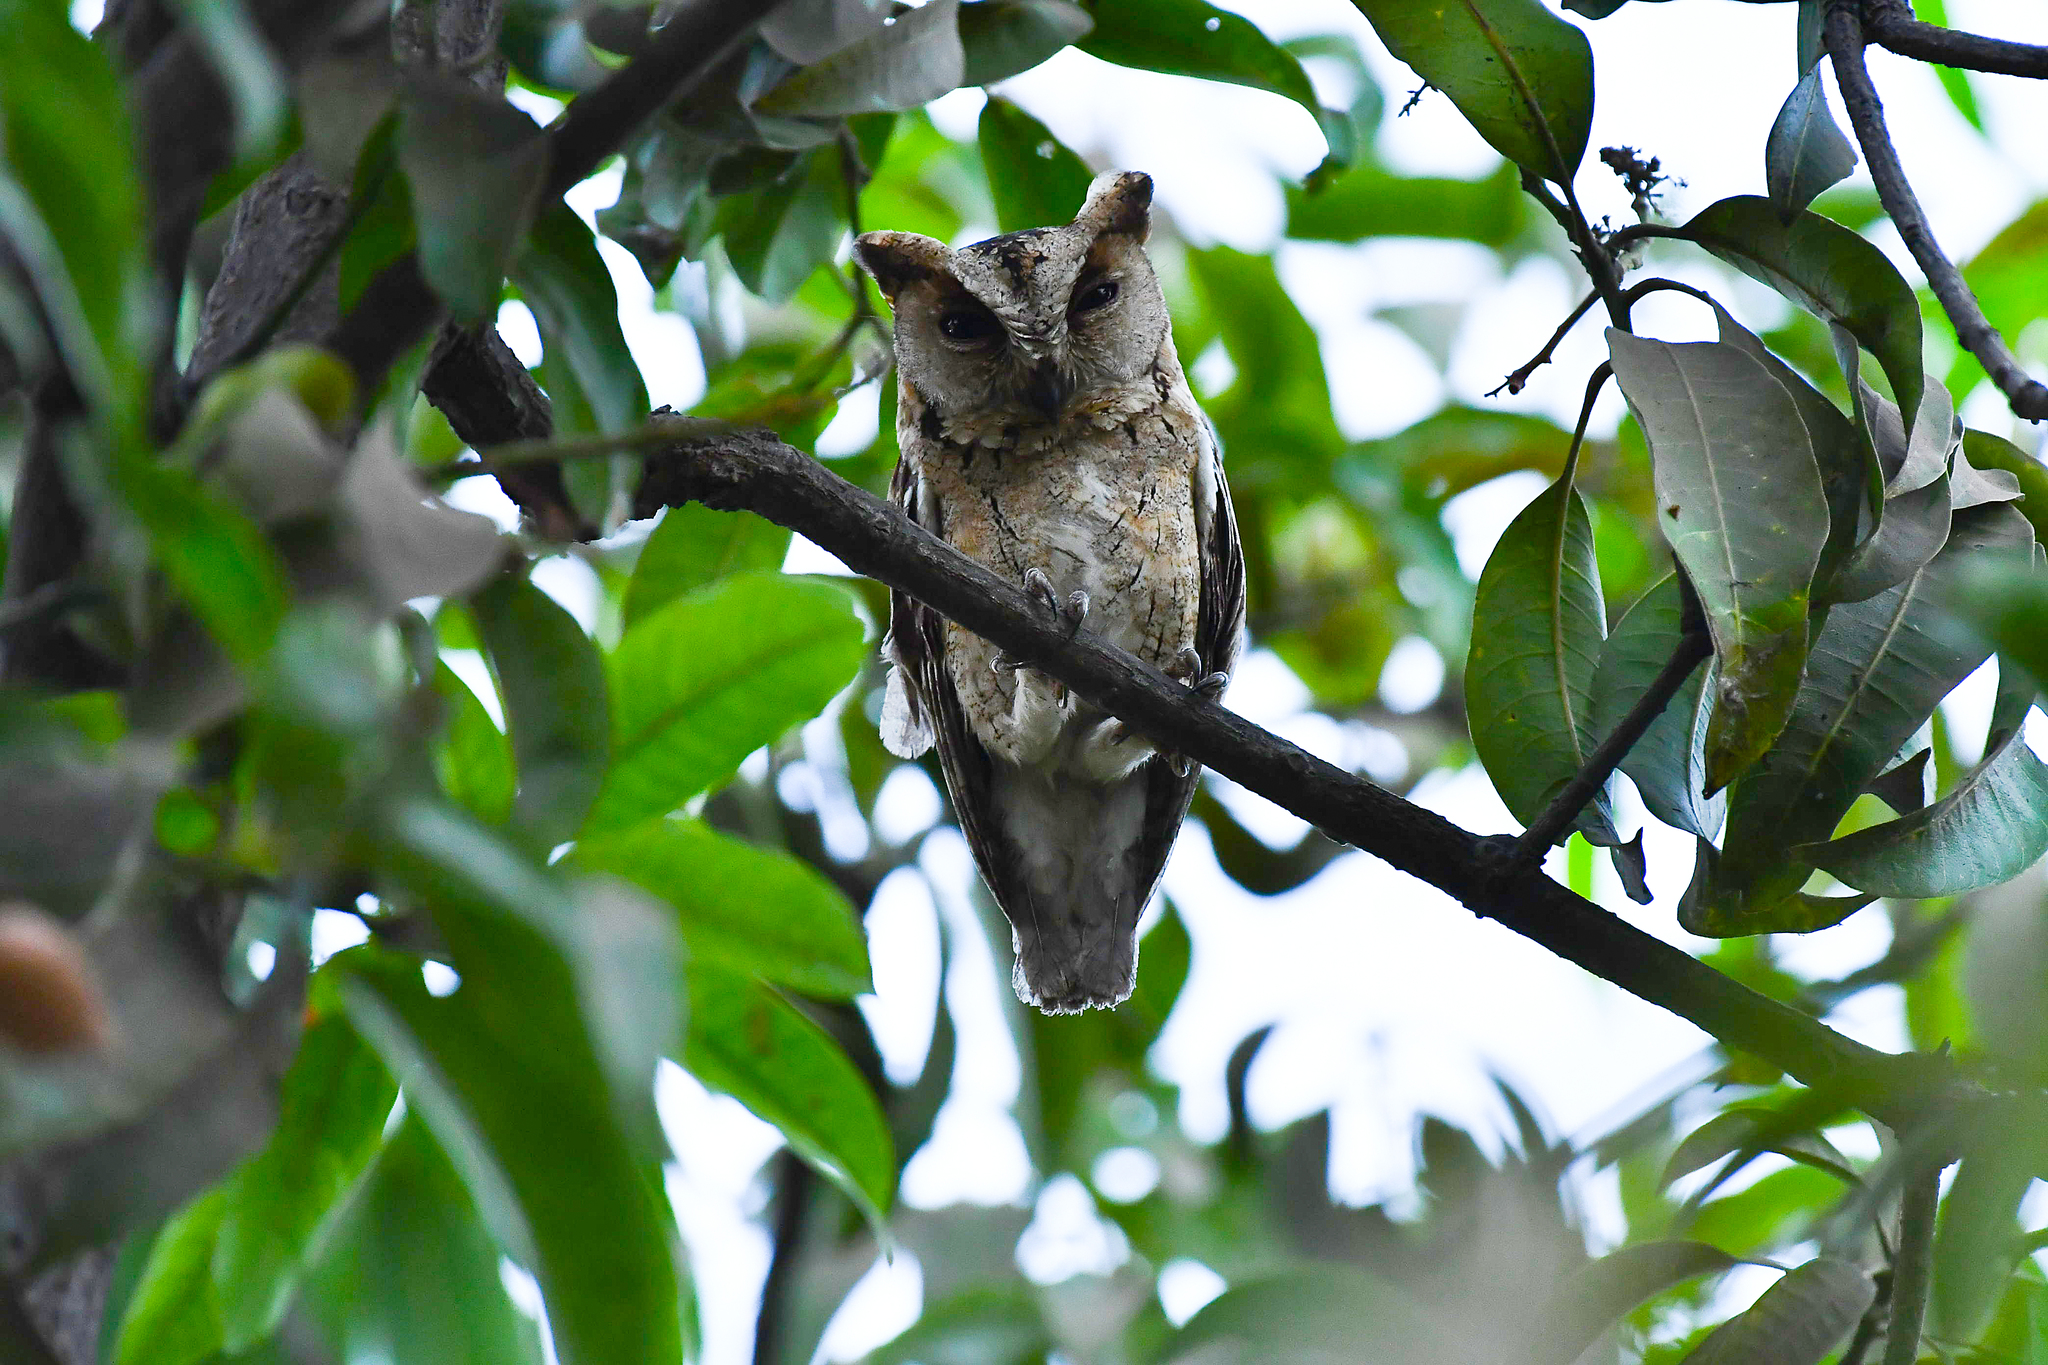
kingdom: Animalia
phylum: Chordata
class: Aves
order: Strigiformes
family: Strigidae
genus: Otus
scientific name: Otus bakkamoena
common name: Indian scops owl
